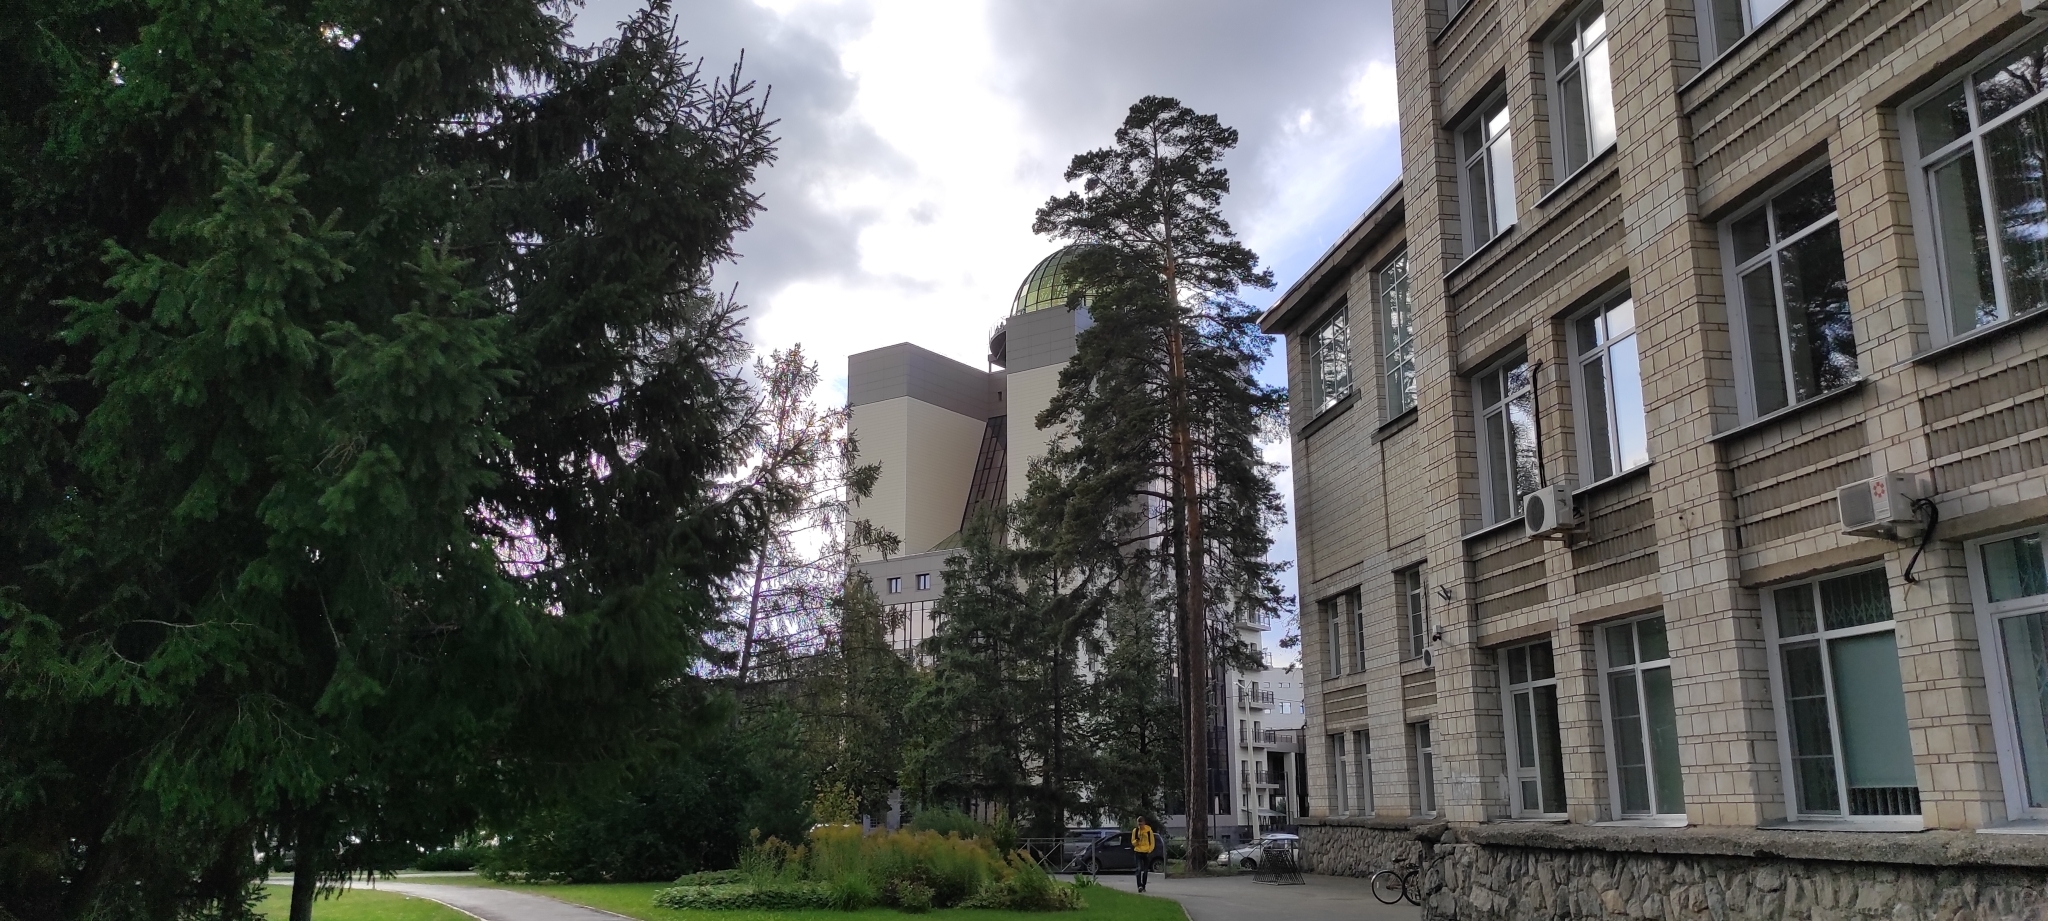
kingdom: Plantae
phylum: Tracheophyta
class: Pinopsida
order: Pinales
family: Pinaceae
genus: Pinus
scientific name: Pinus sylvestris
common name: Scots pine
